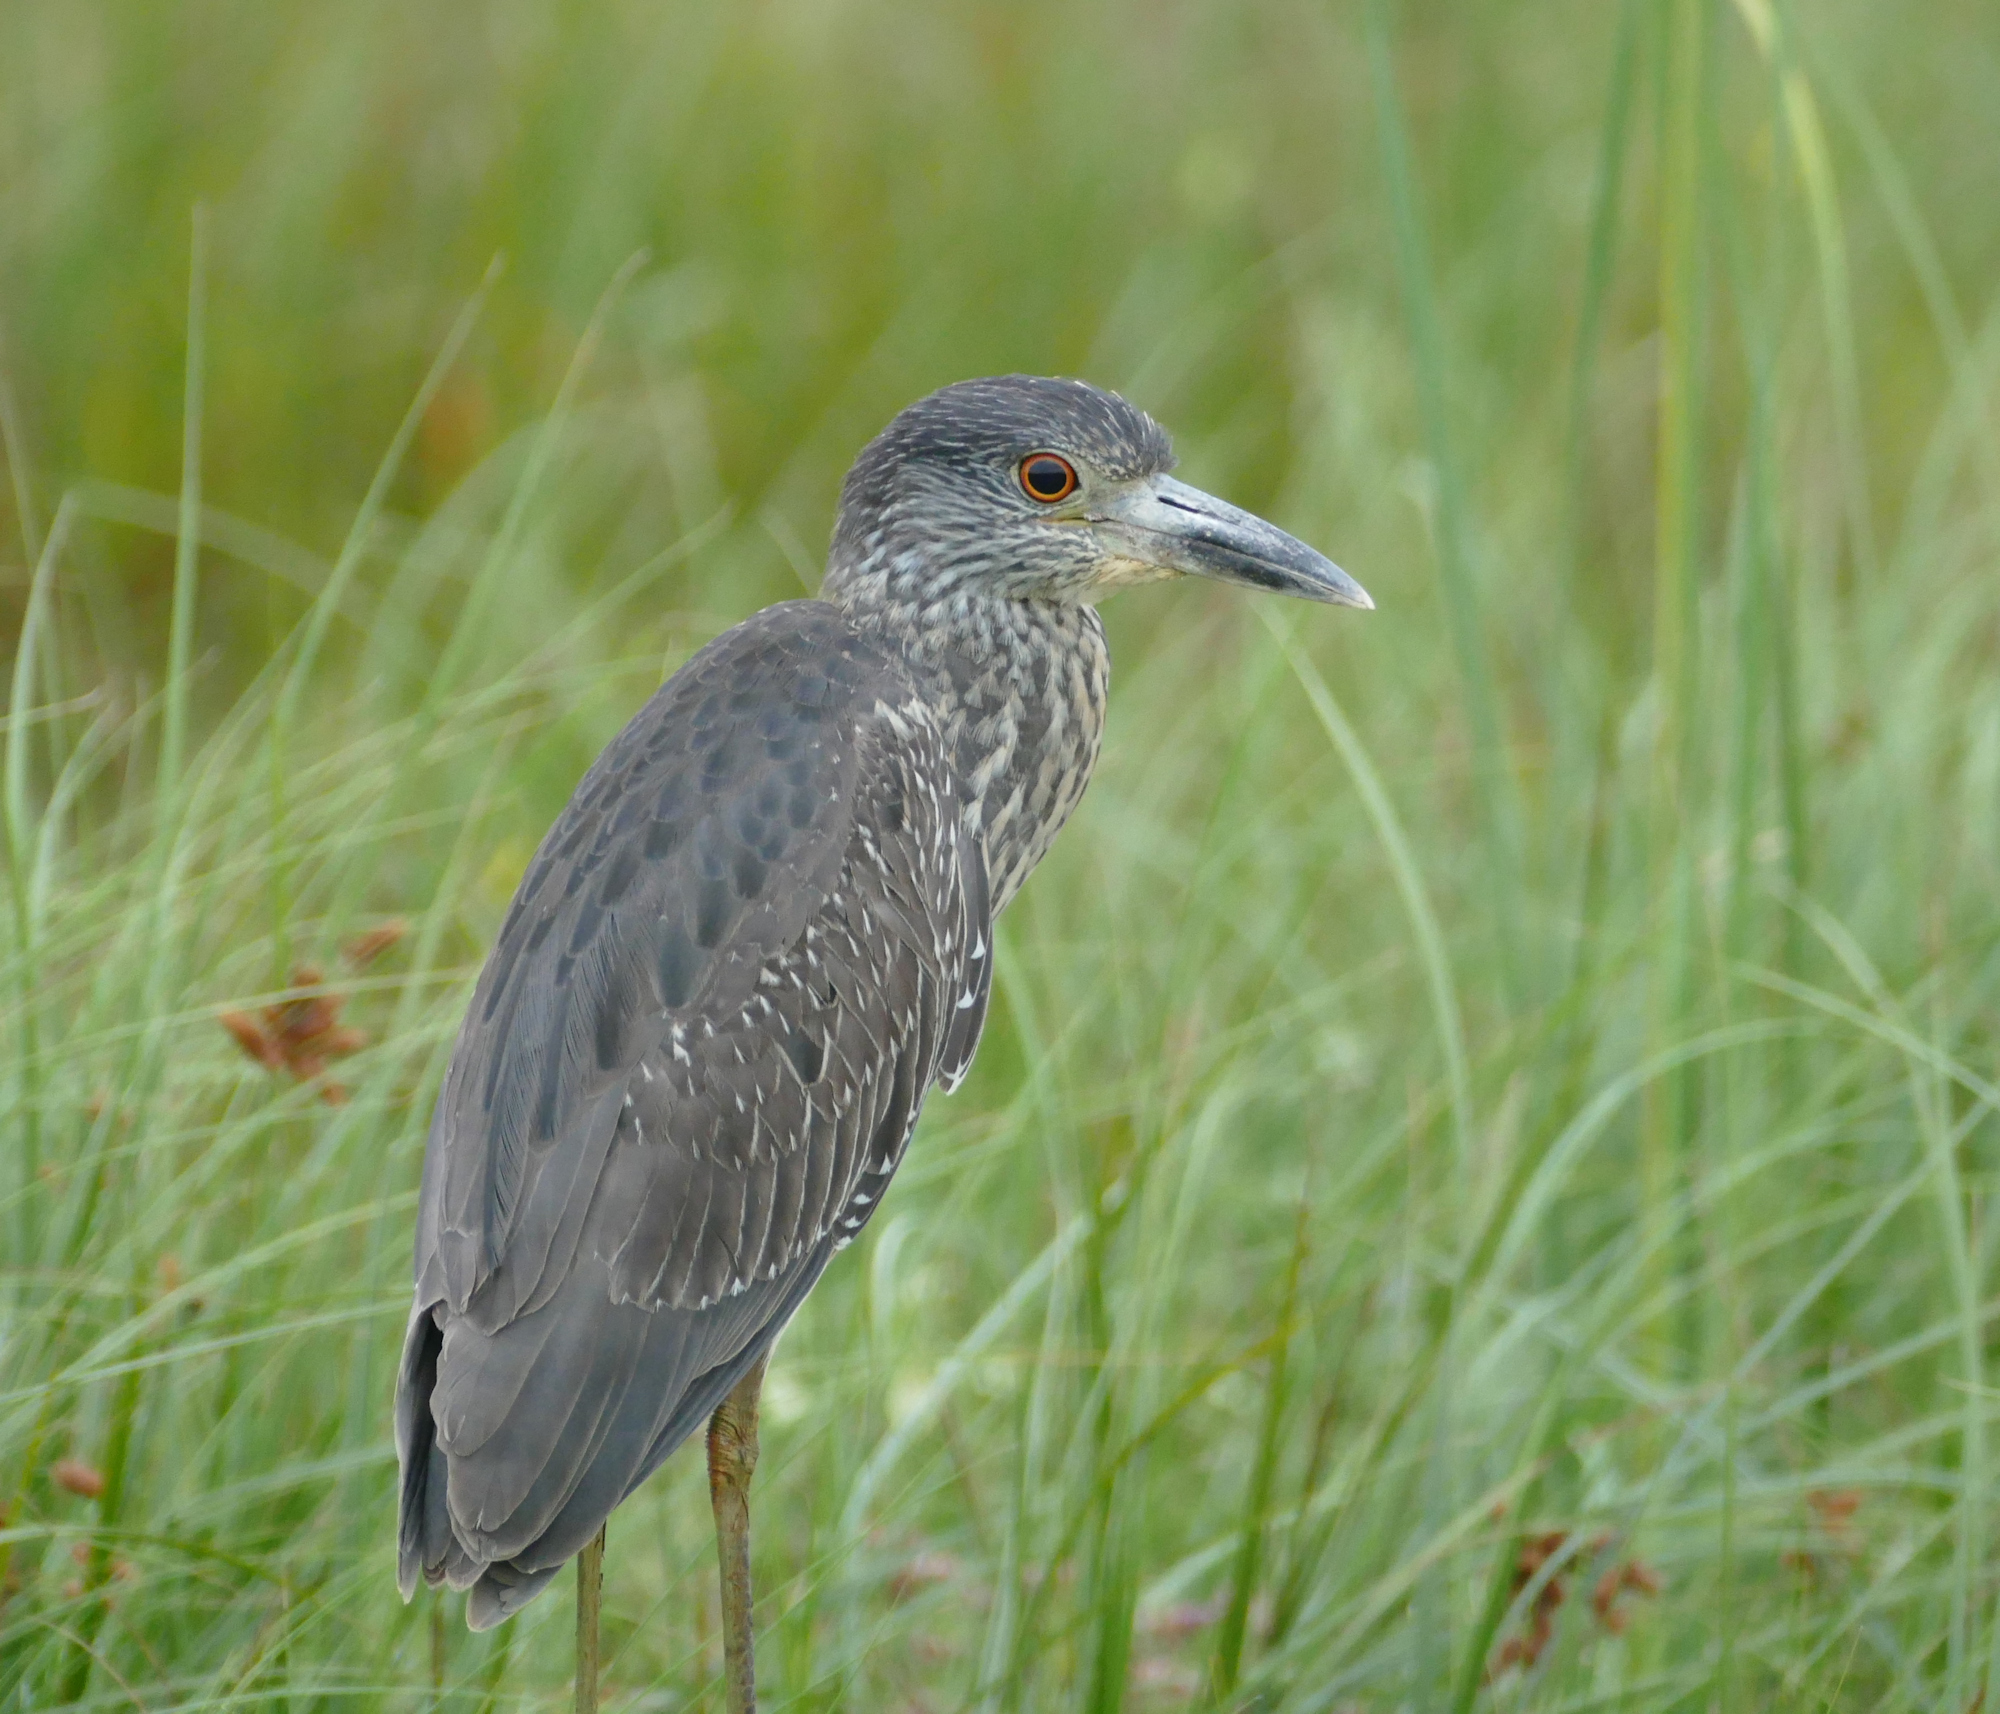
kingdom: Animalia
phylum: Chordata
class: Aves
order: Pelecaniformes
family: Ardeidae
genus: Nyctanassa
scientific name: Nyctanassa violacea
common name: Yellow-crowned night heron
